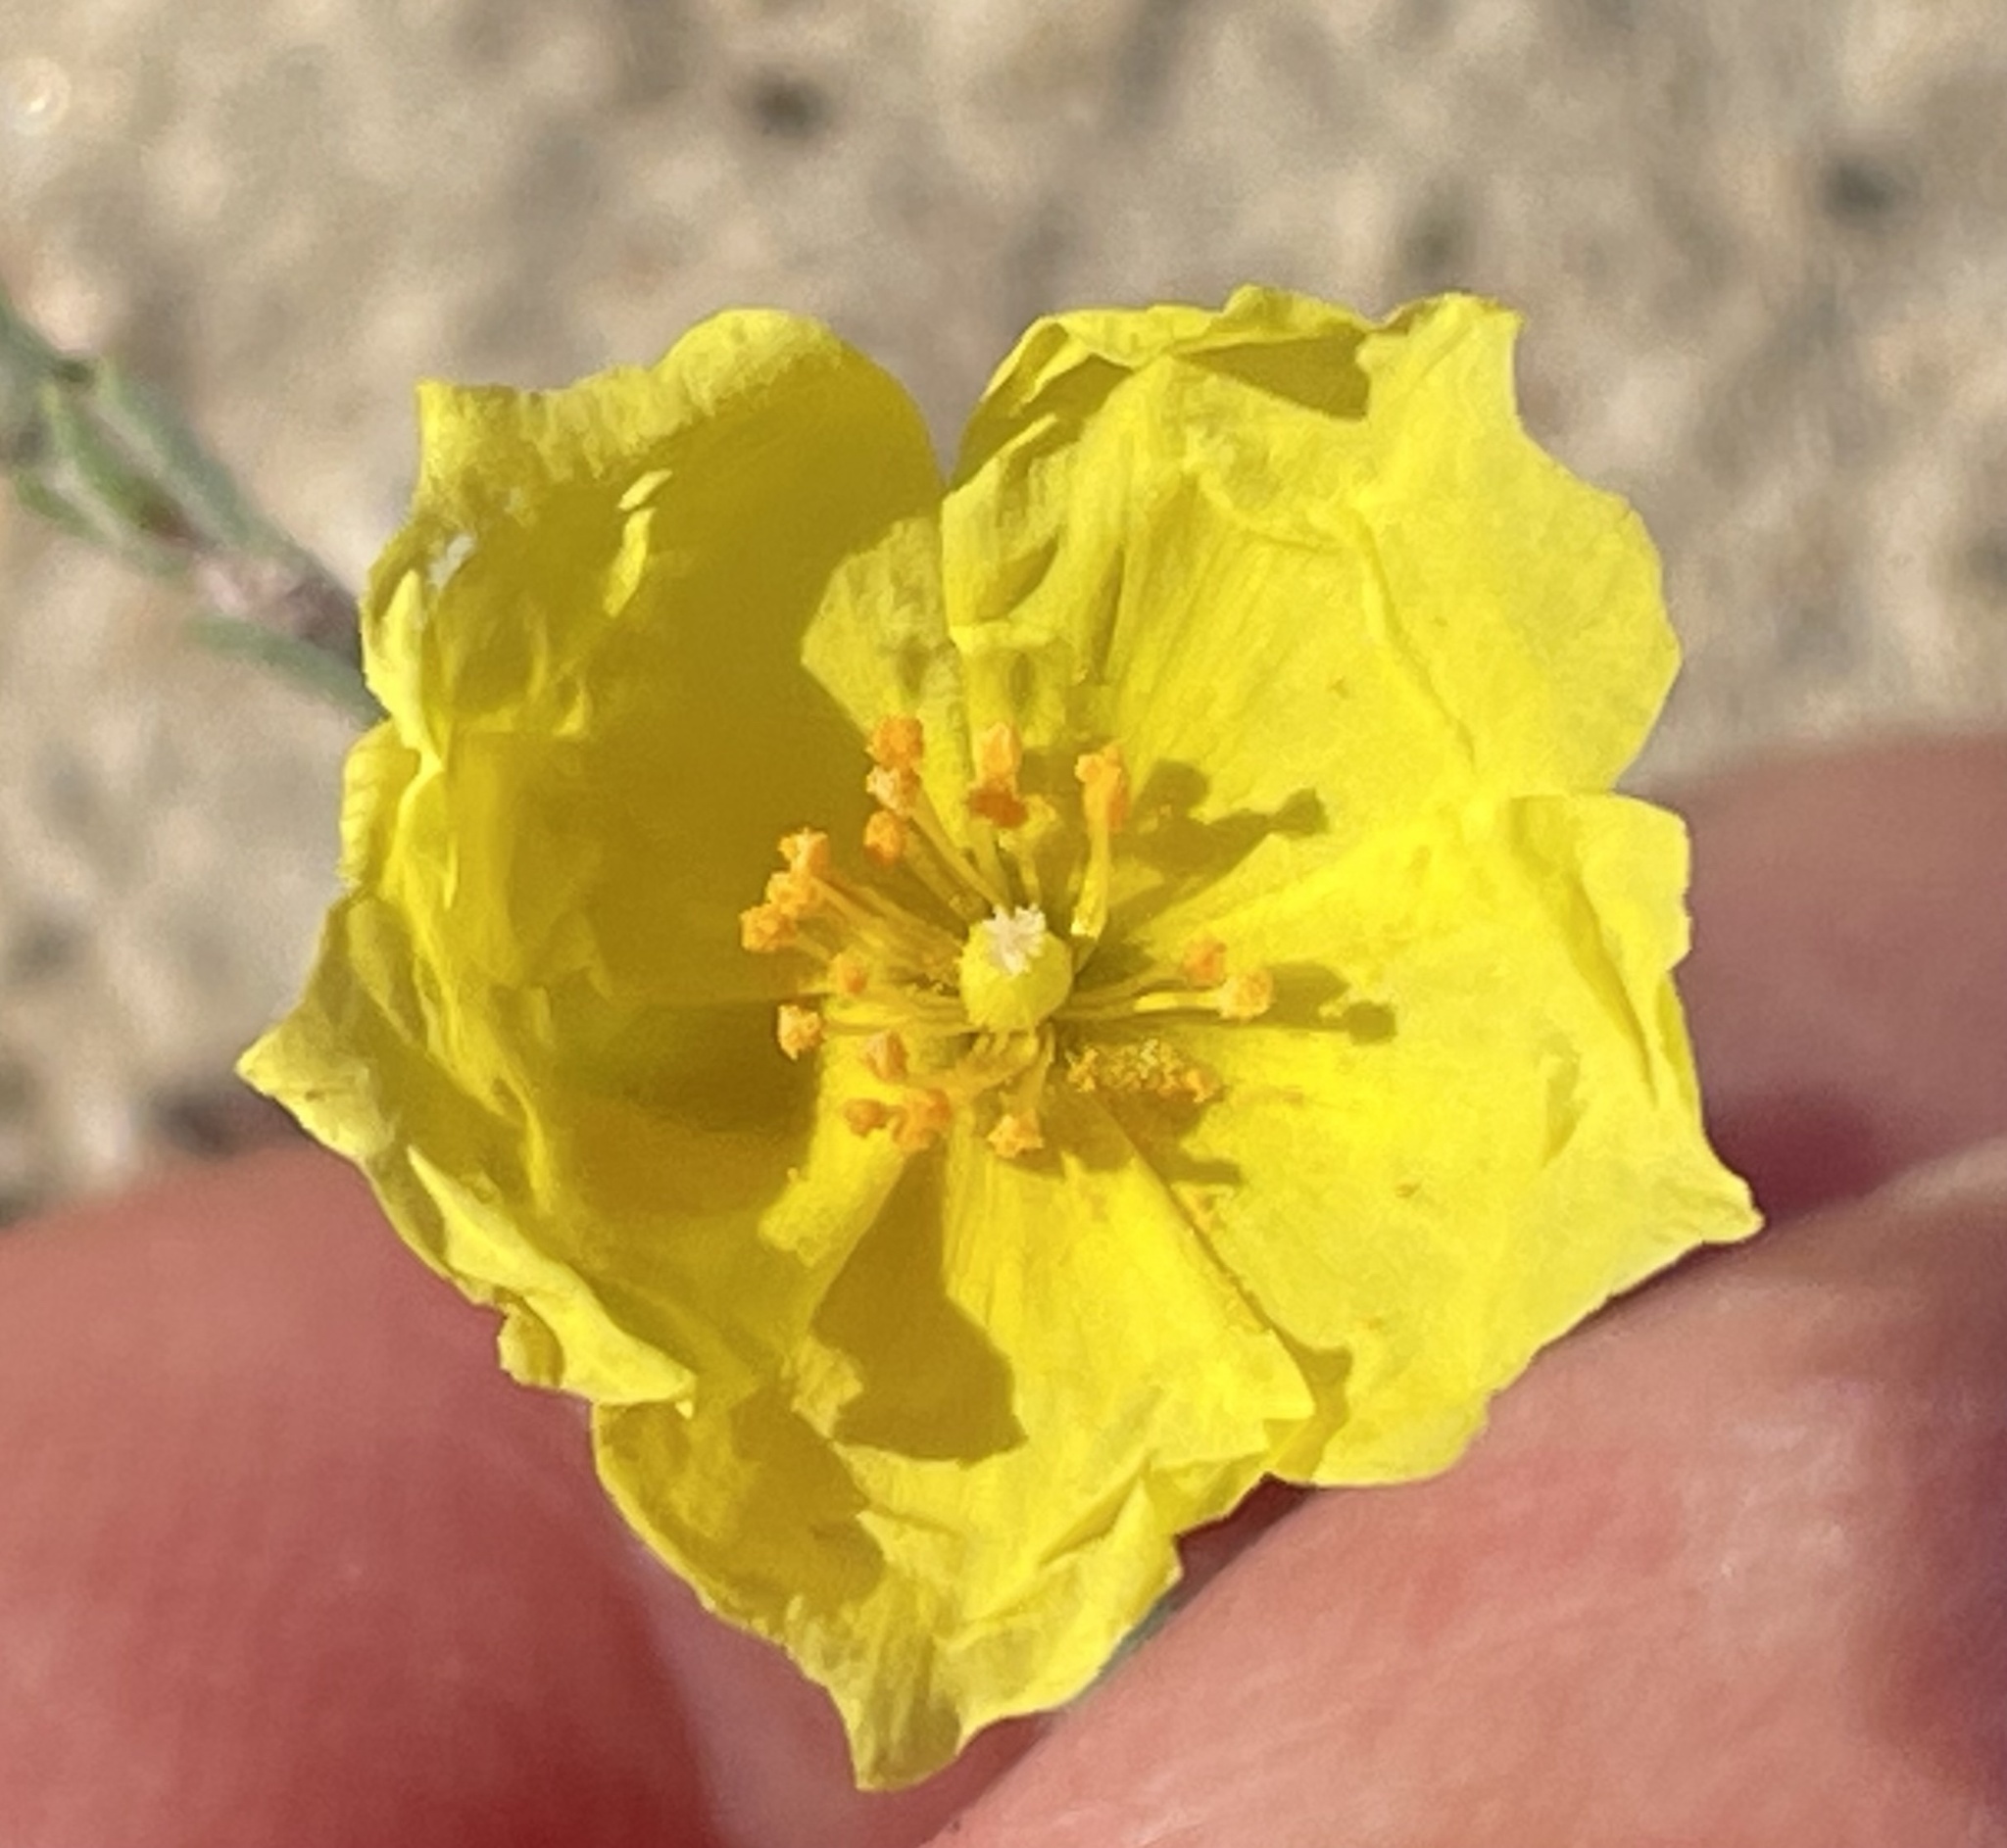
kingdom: Plantae
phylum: Tracheophyta
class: Magnoliopsida
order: Malvales
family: Cistaceae
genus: Crocanthemum
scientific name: Crocanthemum scoparium
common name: Broom-rose
